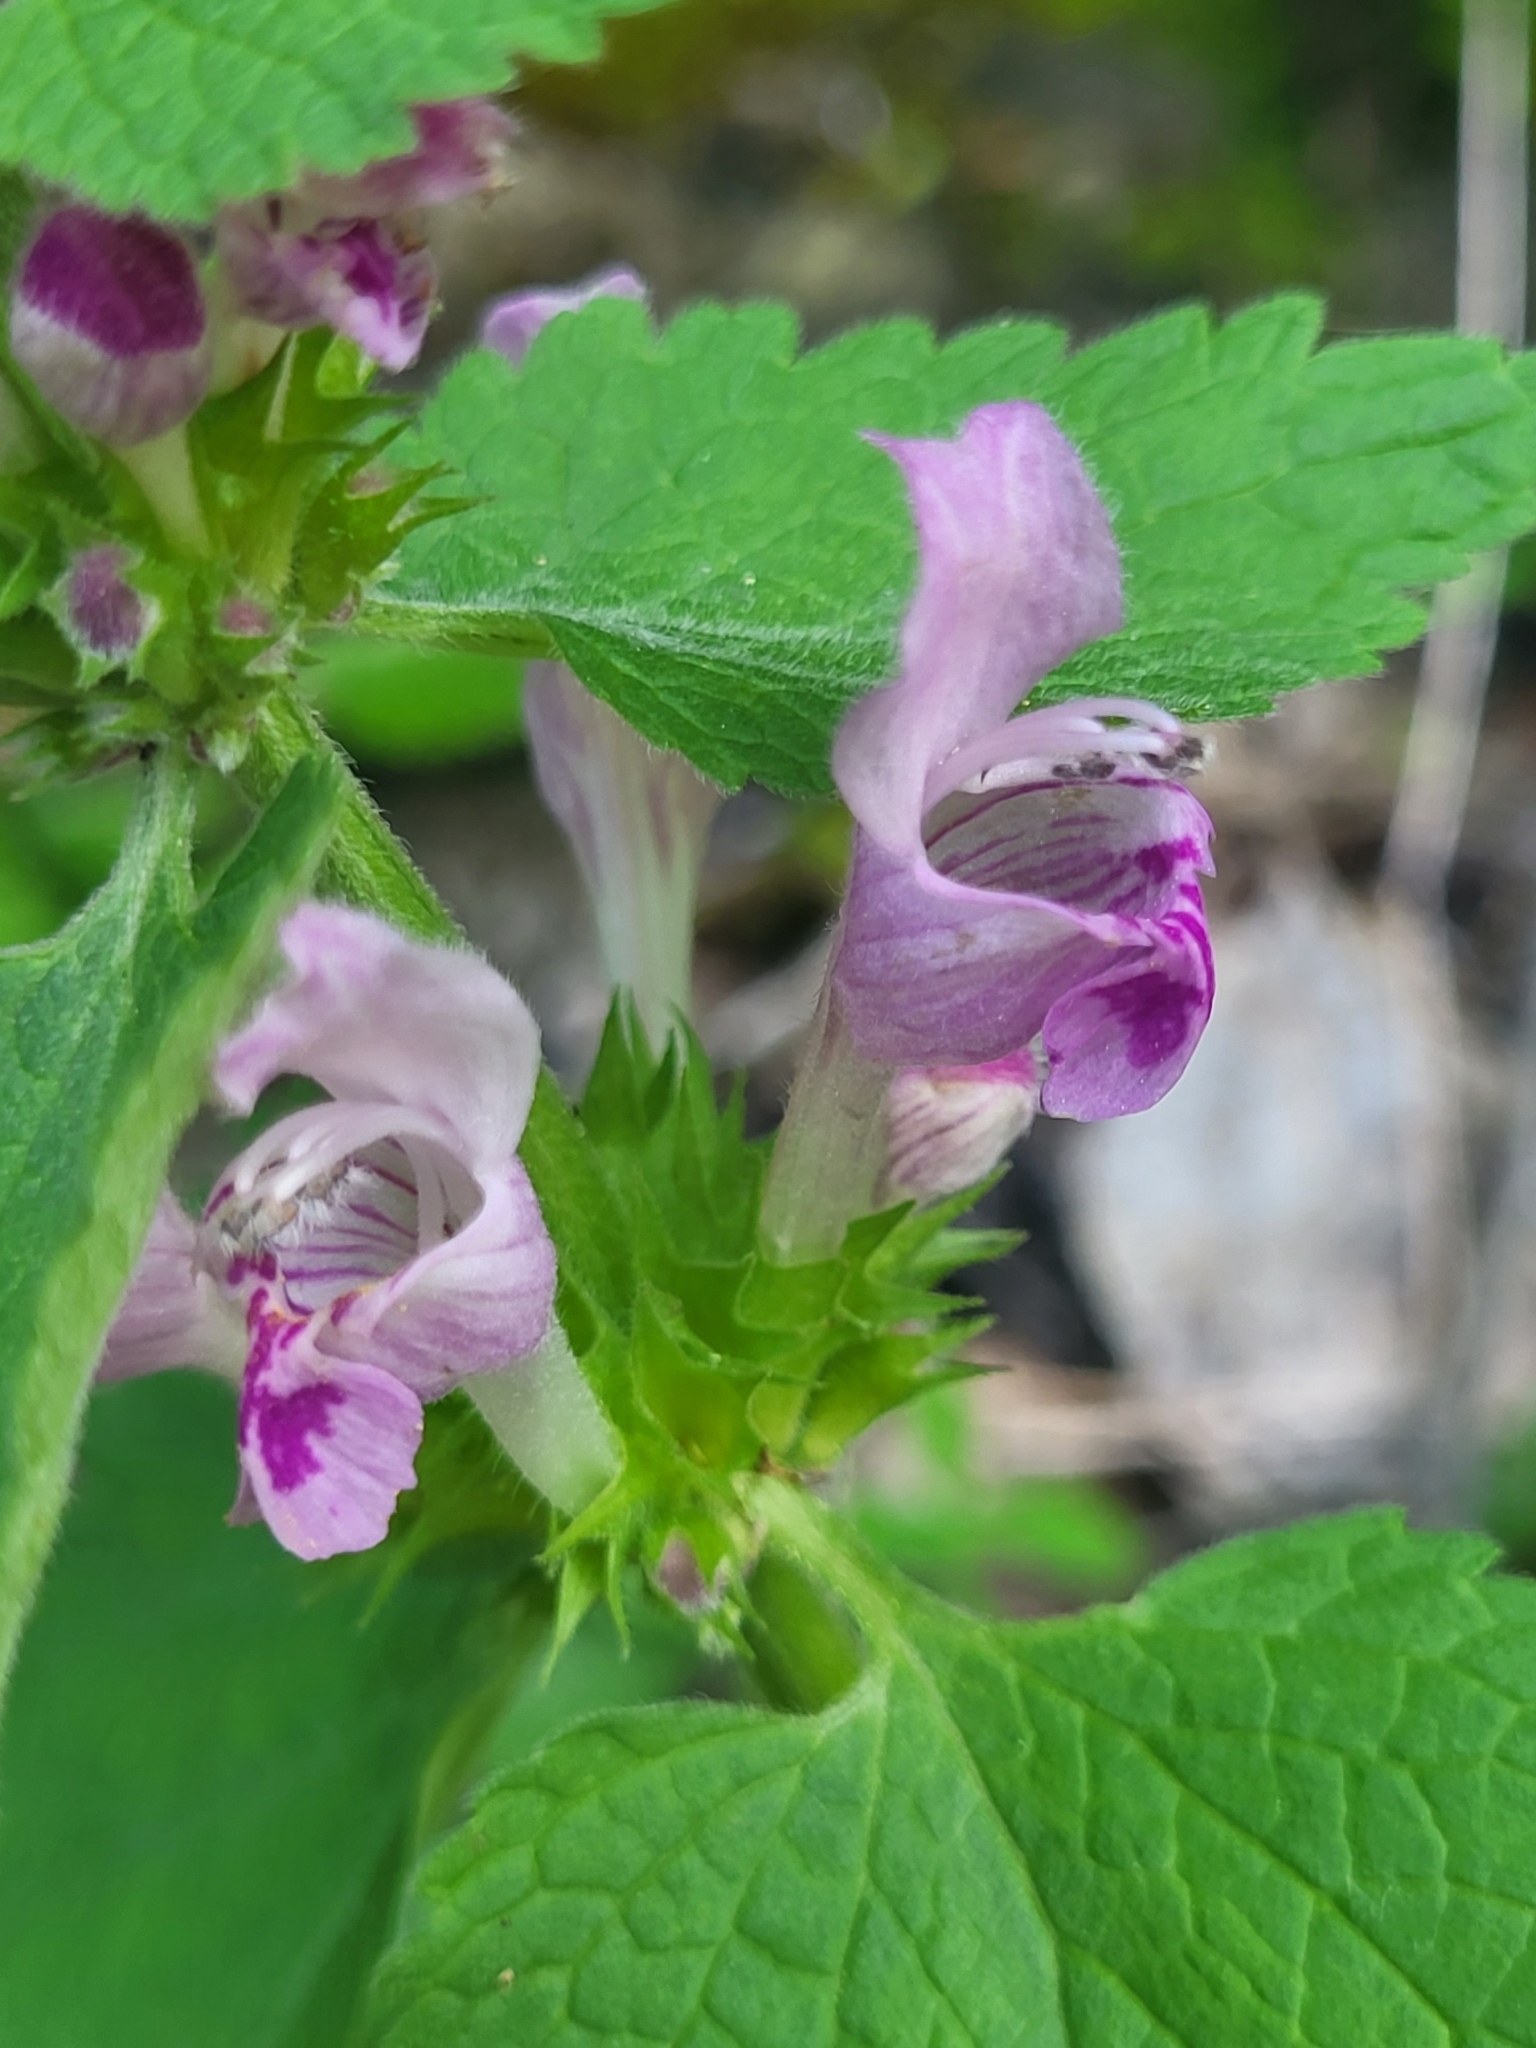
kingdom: Plantae
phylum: Tracheophyta
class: Magnoliopsida
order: Lamiales
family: Lamiaceae
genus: Lamium
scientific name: Lamium garganicum
